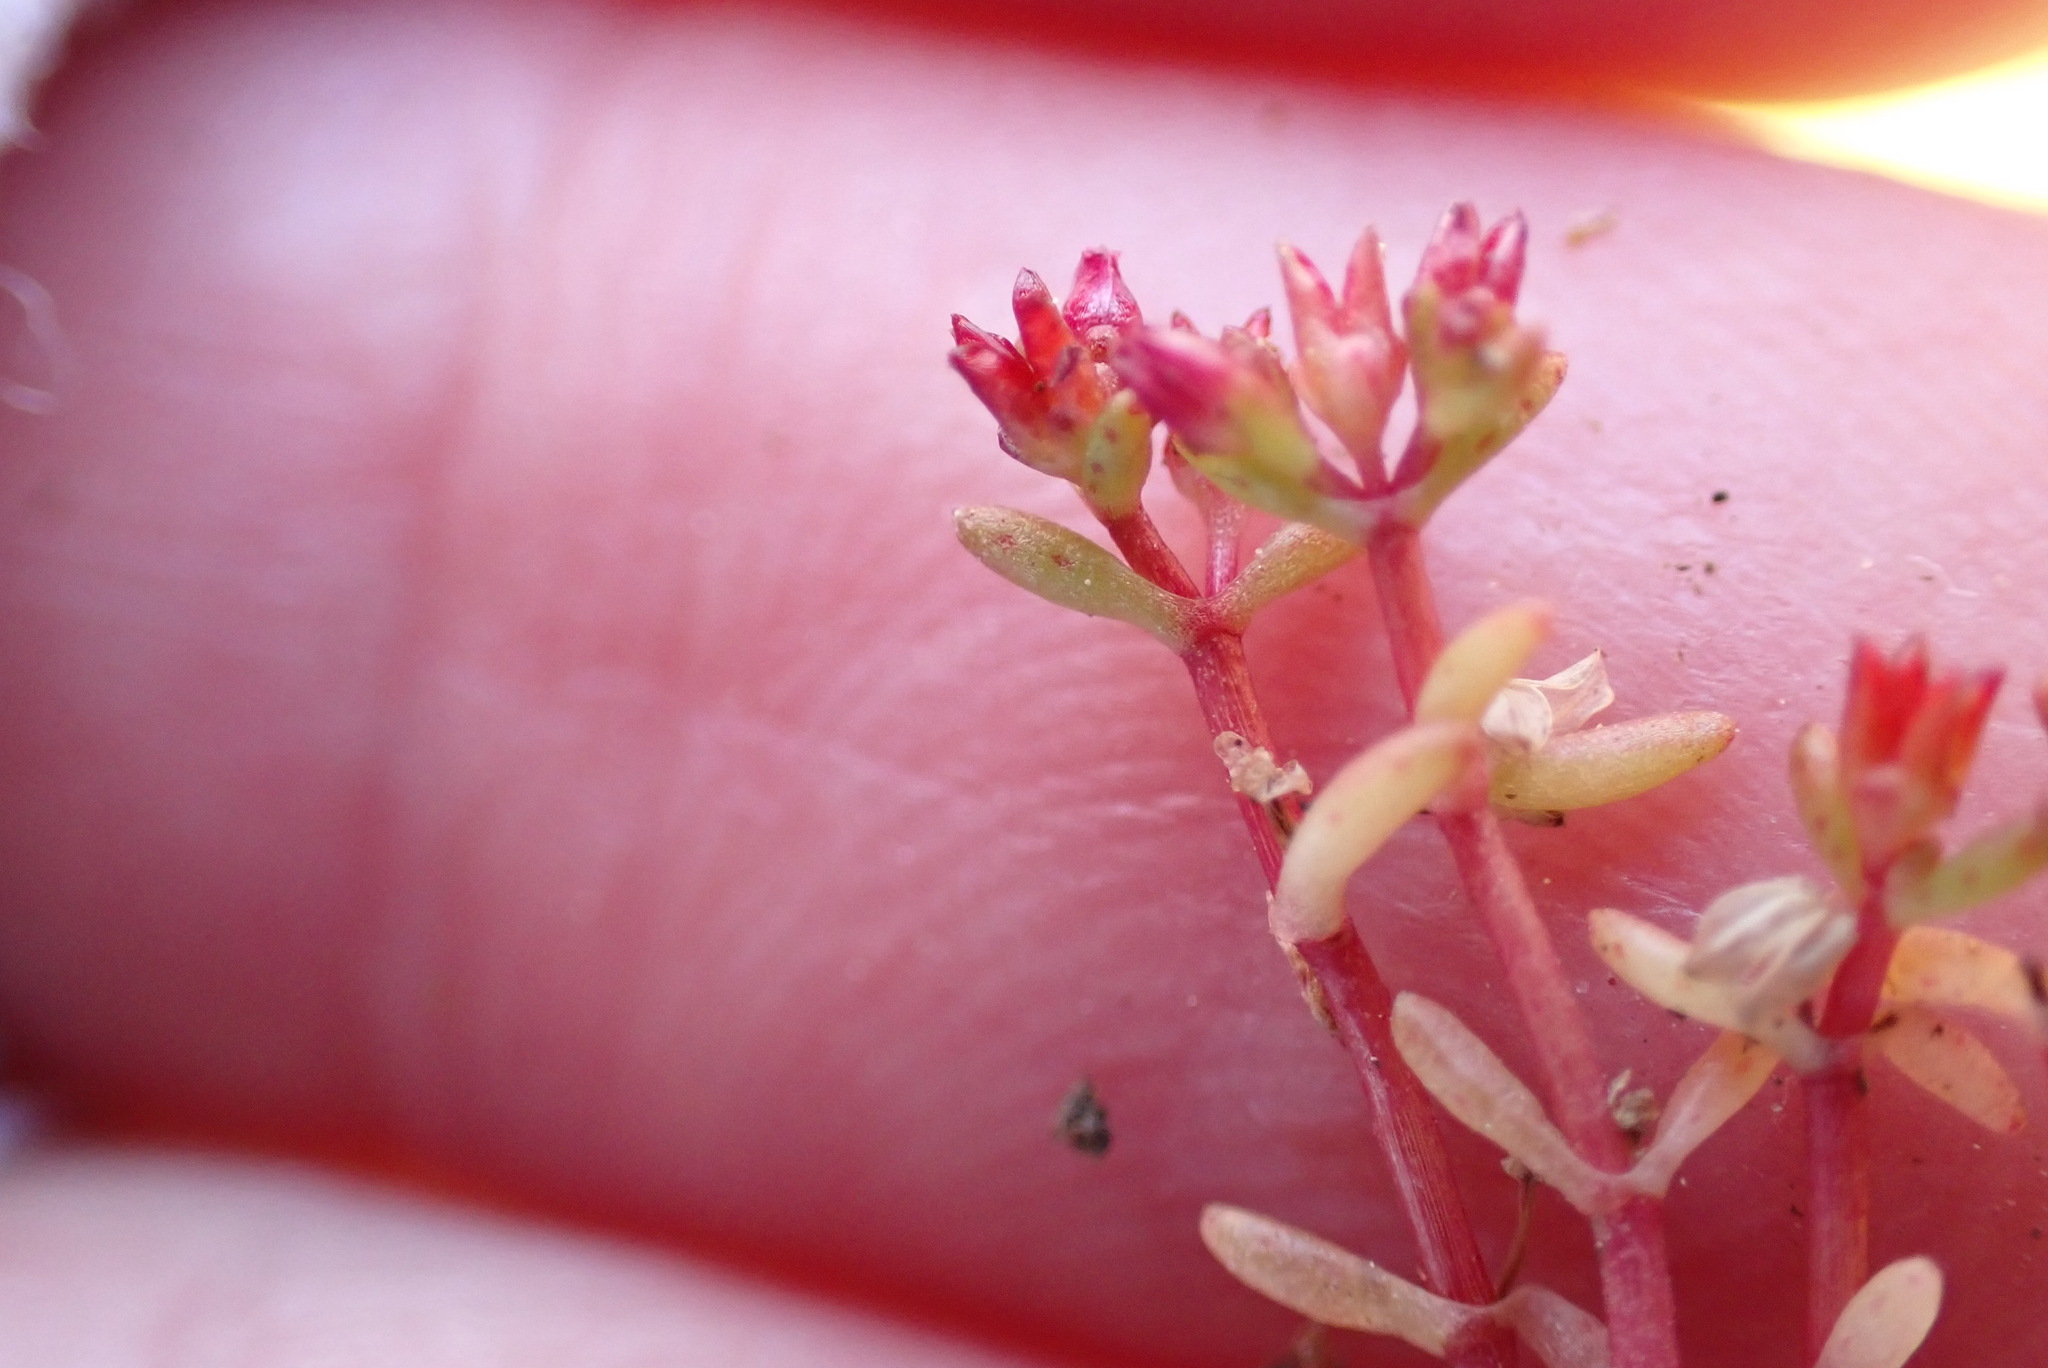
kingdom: Plantae
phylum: Tracheophyta
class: Magnoliopsida
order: Saxifragales
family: Crassulaceae
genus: Crassula
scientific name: Crassula solieri
